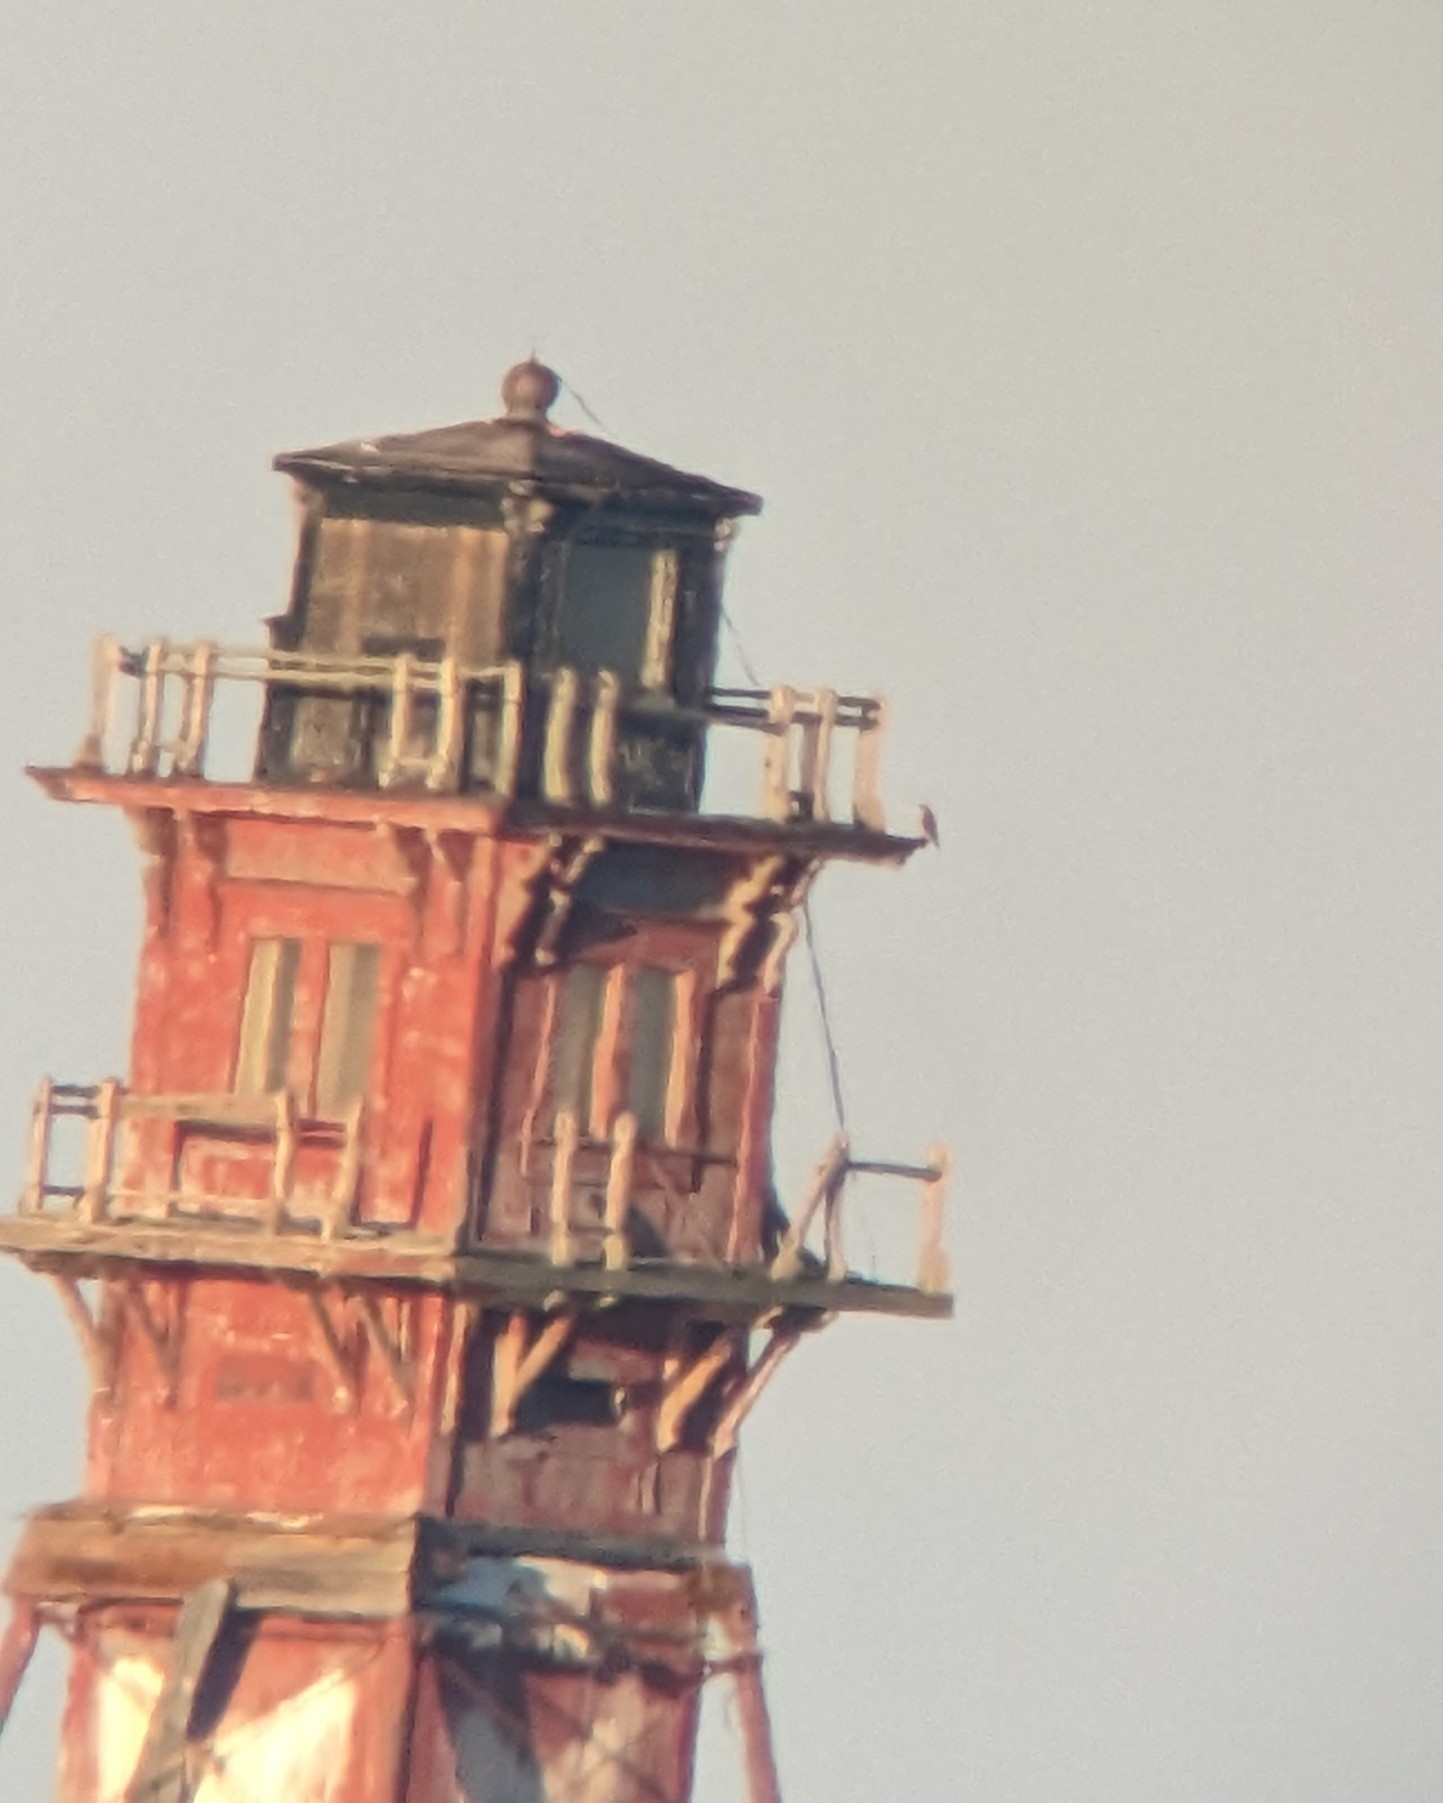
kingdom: Animalia
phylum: Chordata
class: Aves
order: Falconiformes
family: Falconidae
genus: Falco
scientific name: Falco peregrinus
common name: Peregrine falcon
